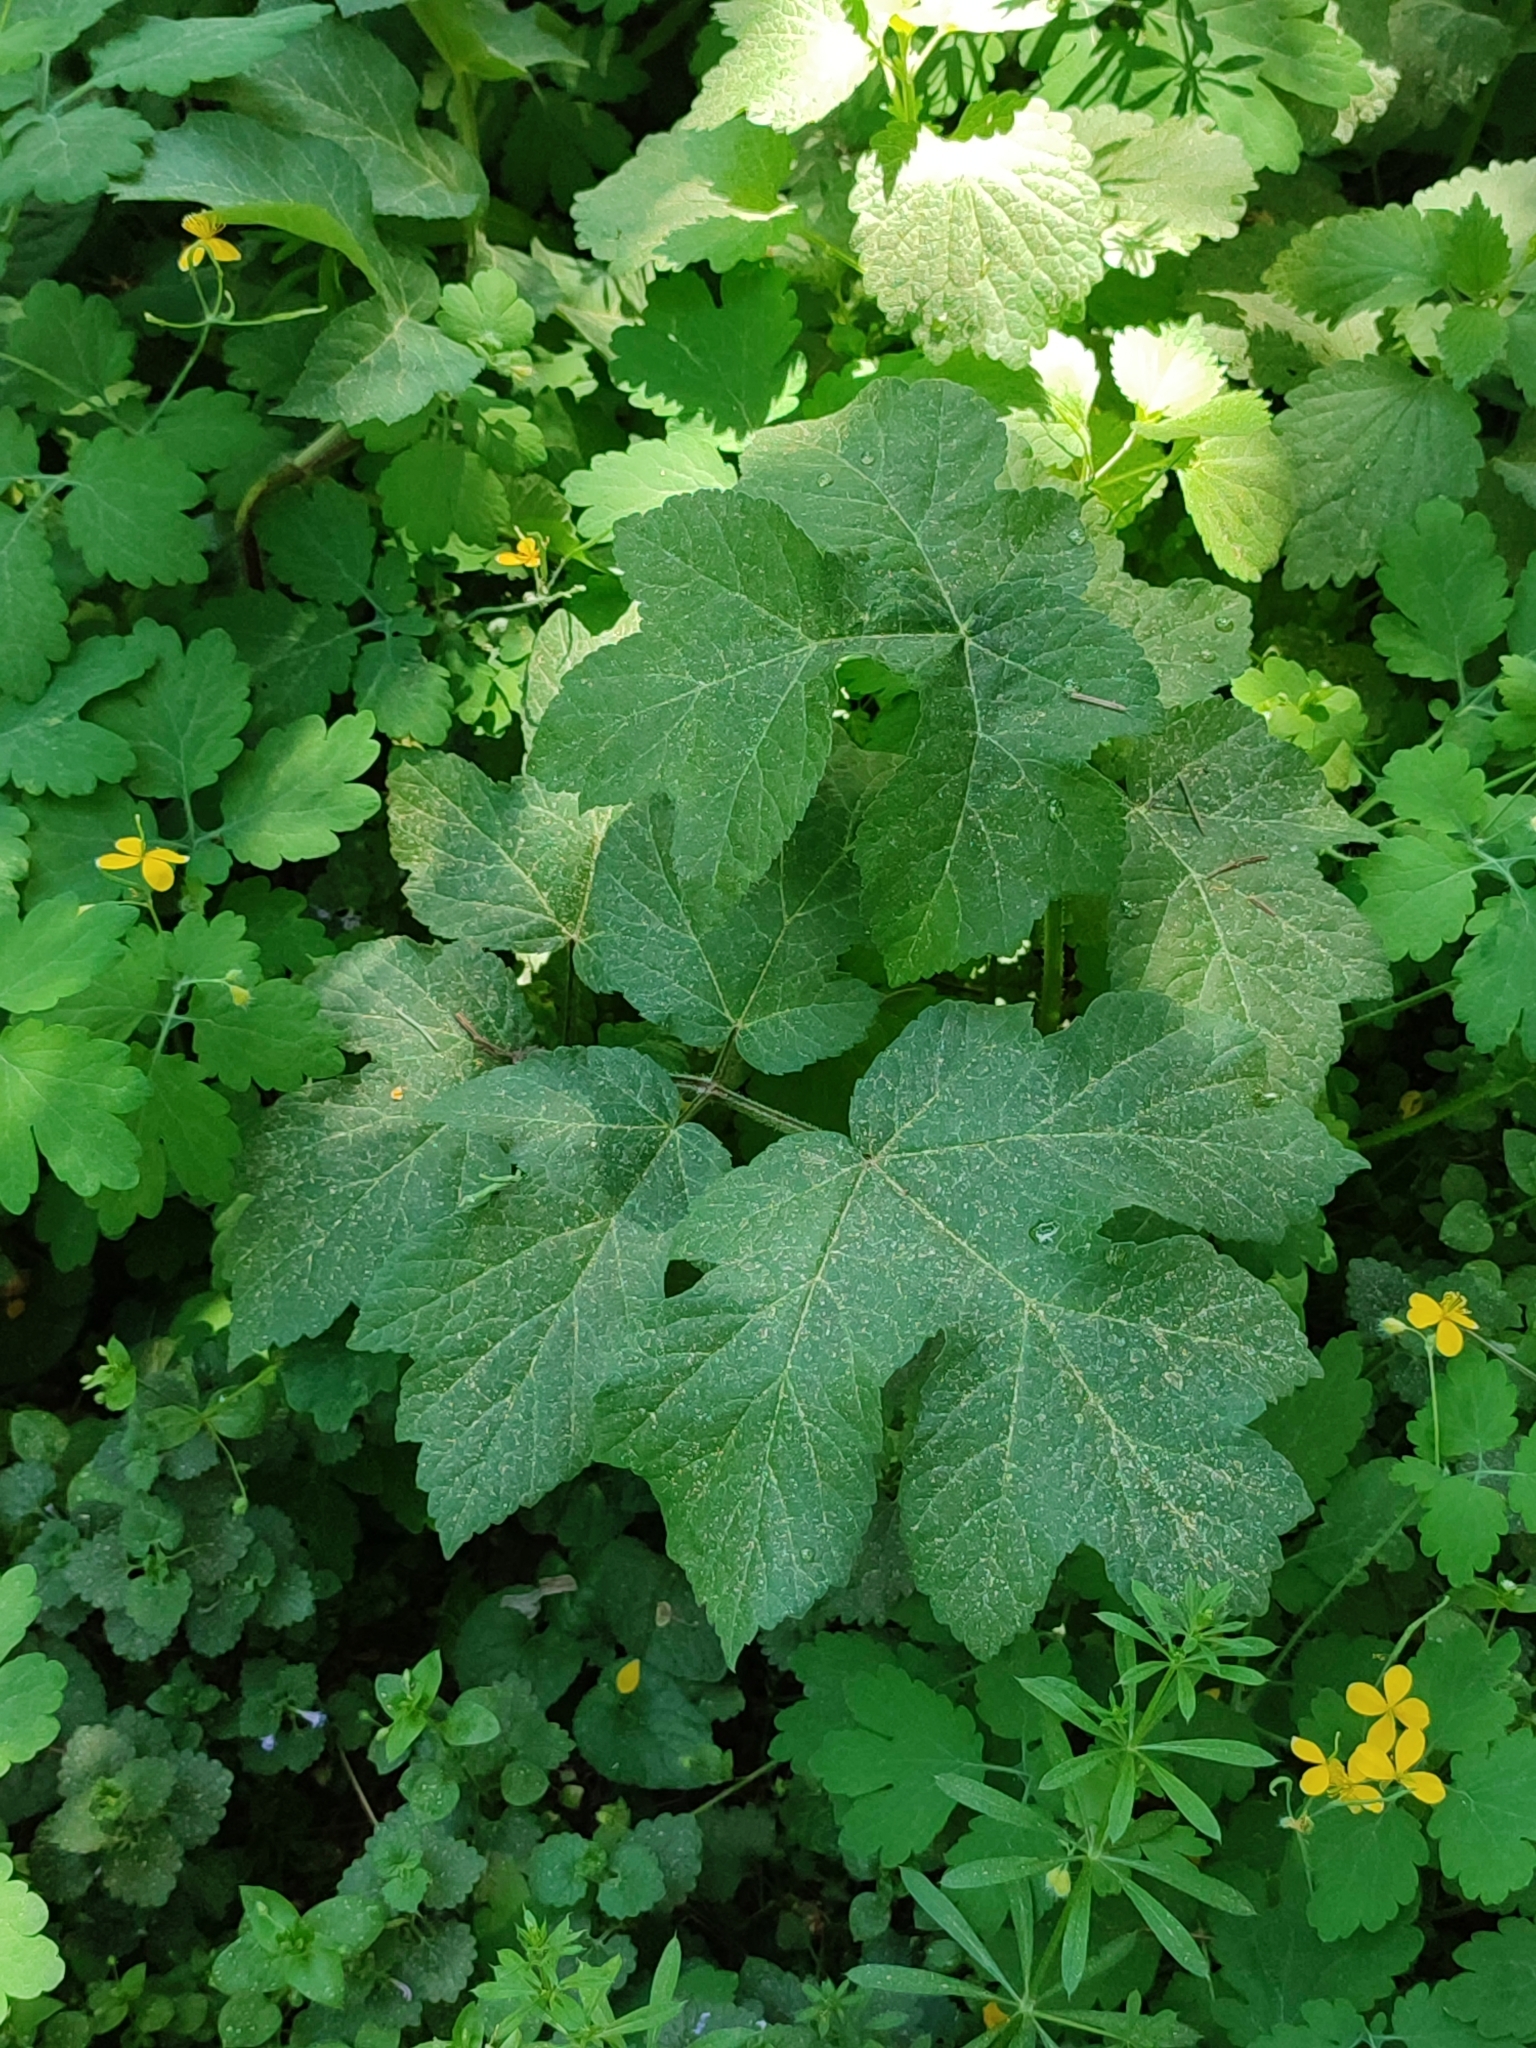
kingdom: Plantae
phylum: Tracheophyta
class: Magnoliopsida
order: Apiales
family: Apiaceae
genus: Heracleum
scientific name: Heracleum sphondylium
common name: Hogweed
